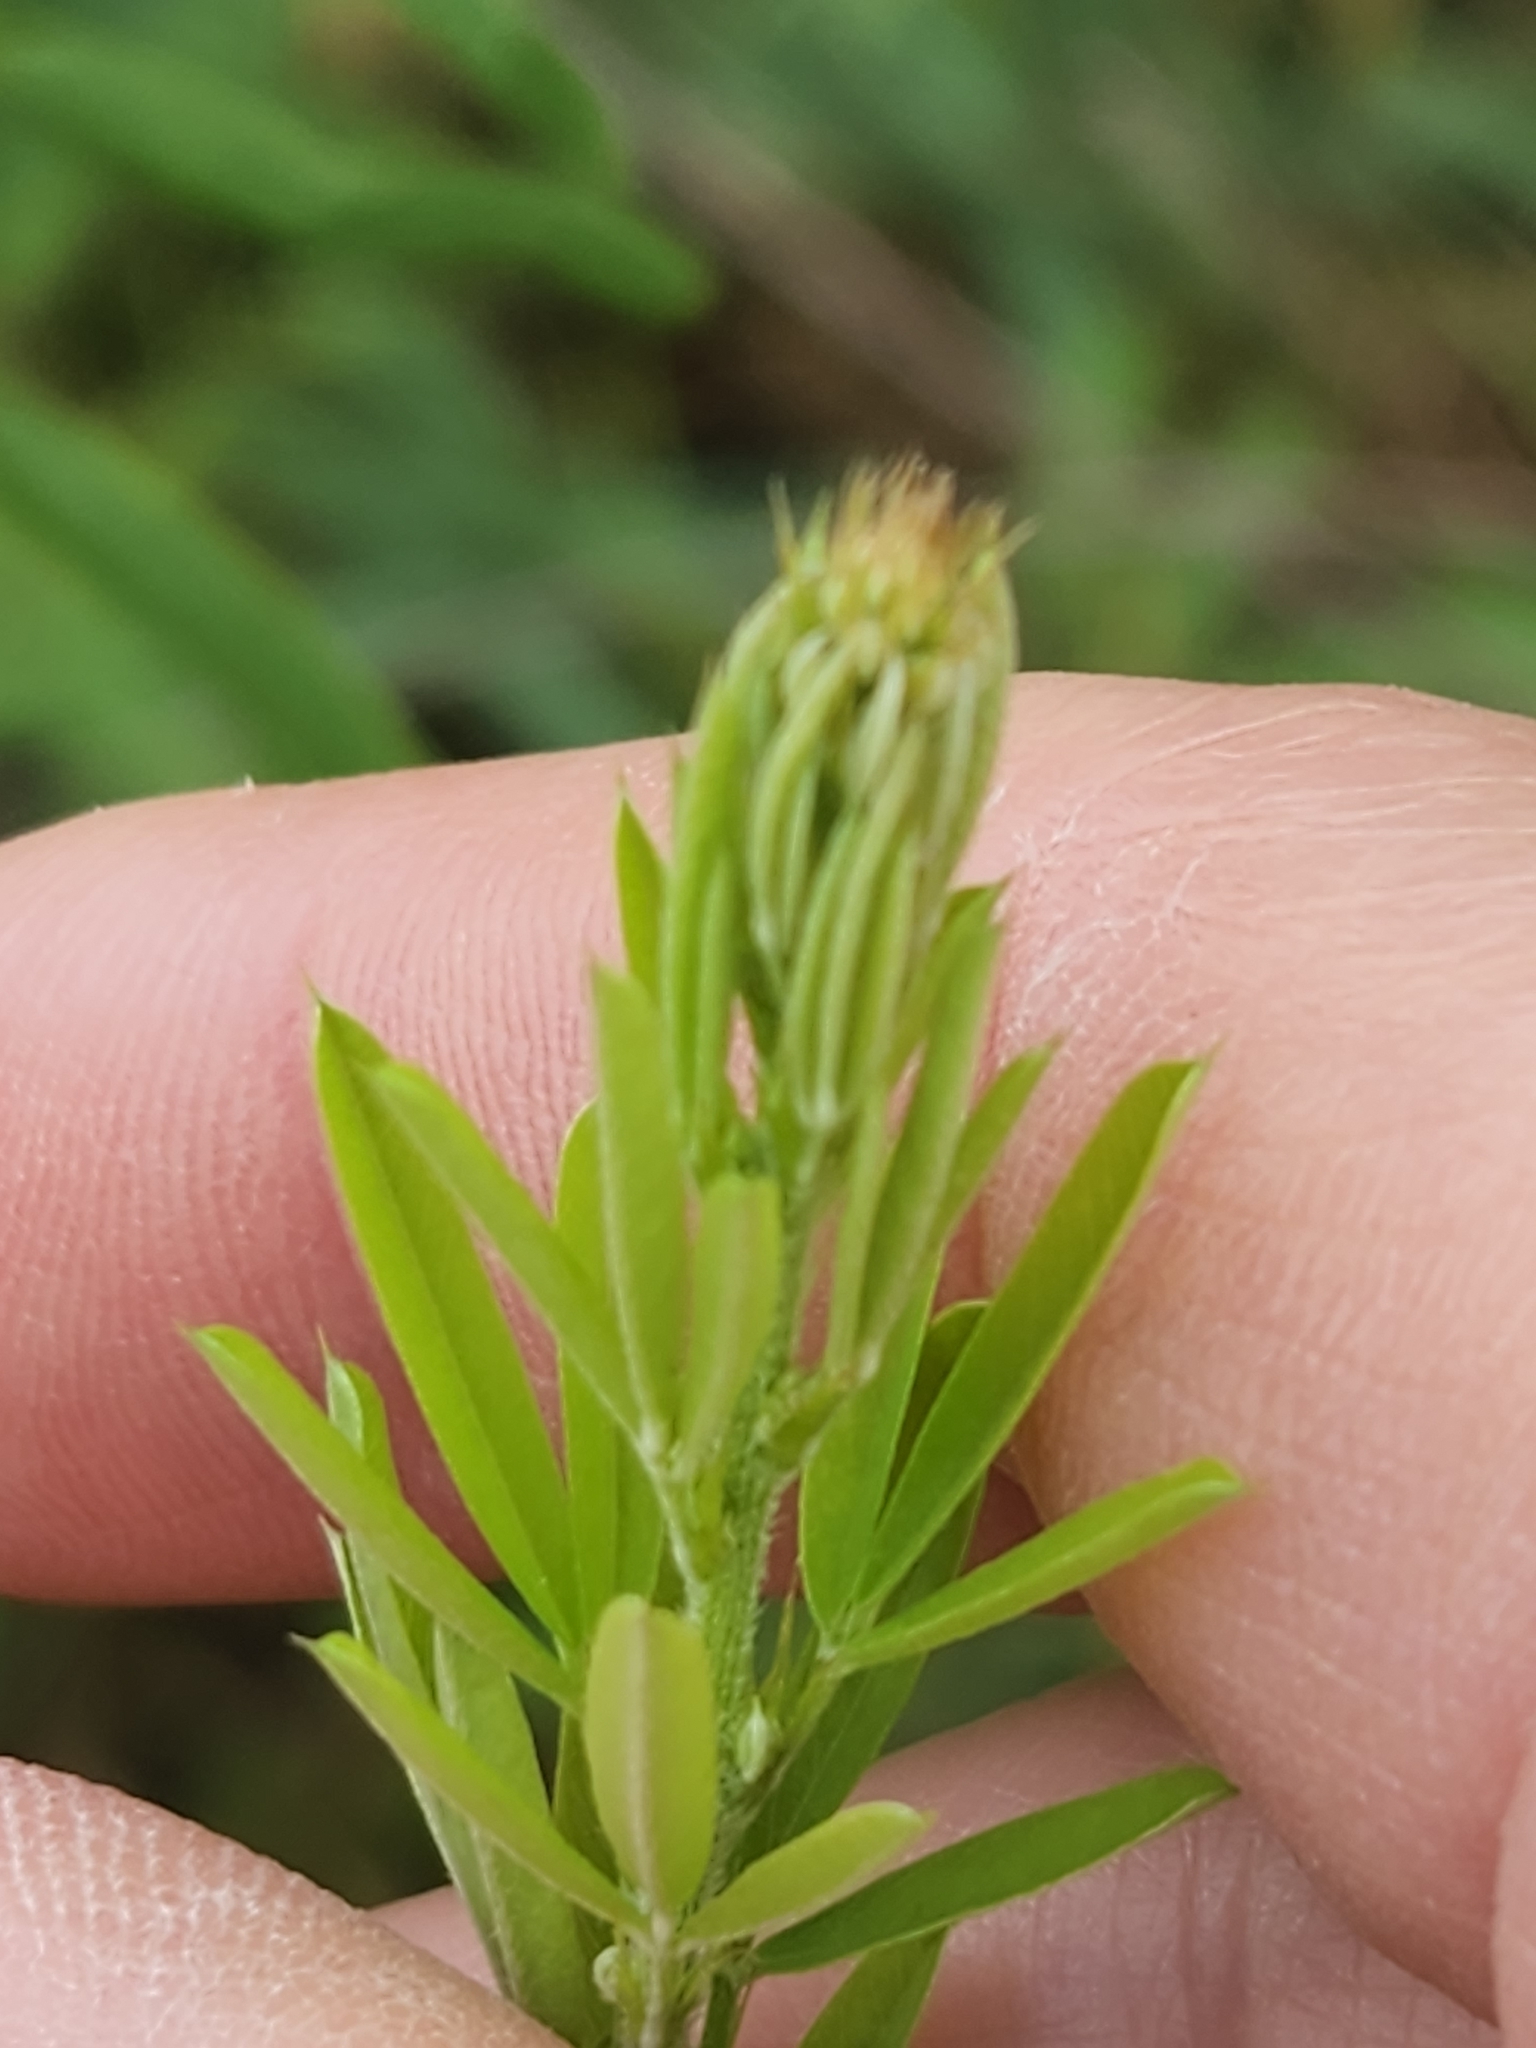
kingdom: Plantae
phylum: Tracheophyta
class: Magnoliopsida
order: Fabales
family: Fabaceae
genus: Lespedeza
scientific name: Lespedeza cuneata
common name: Chinese bush-clover
